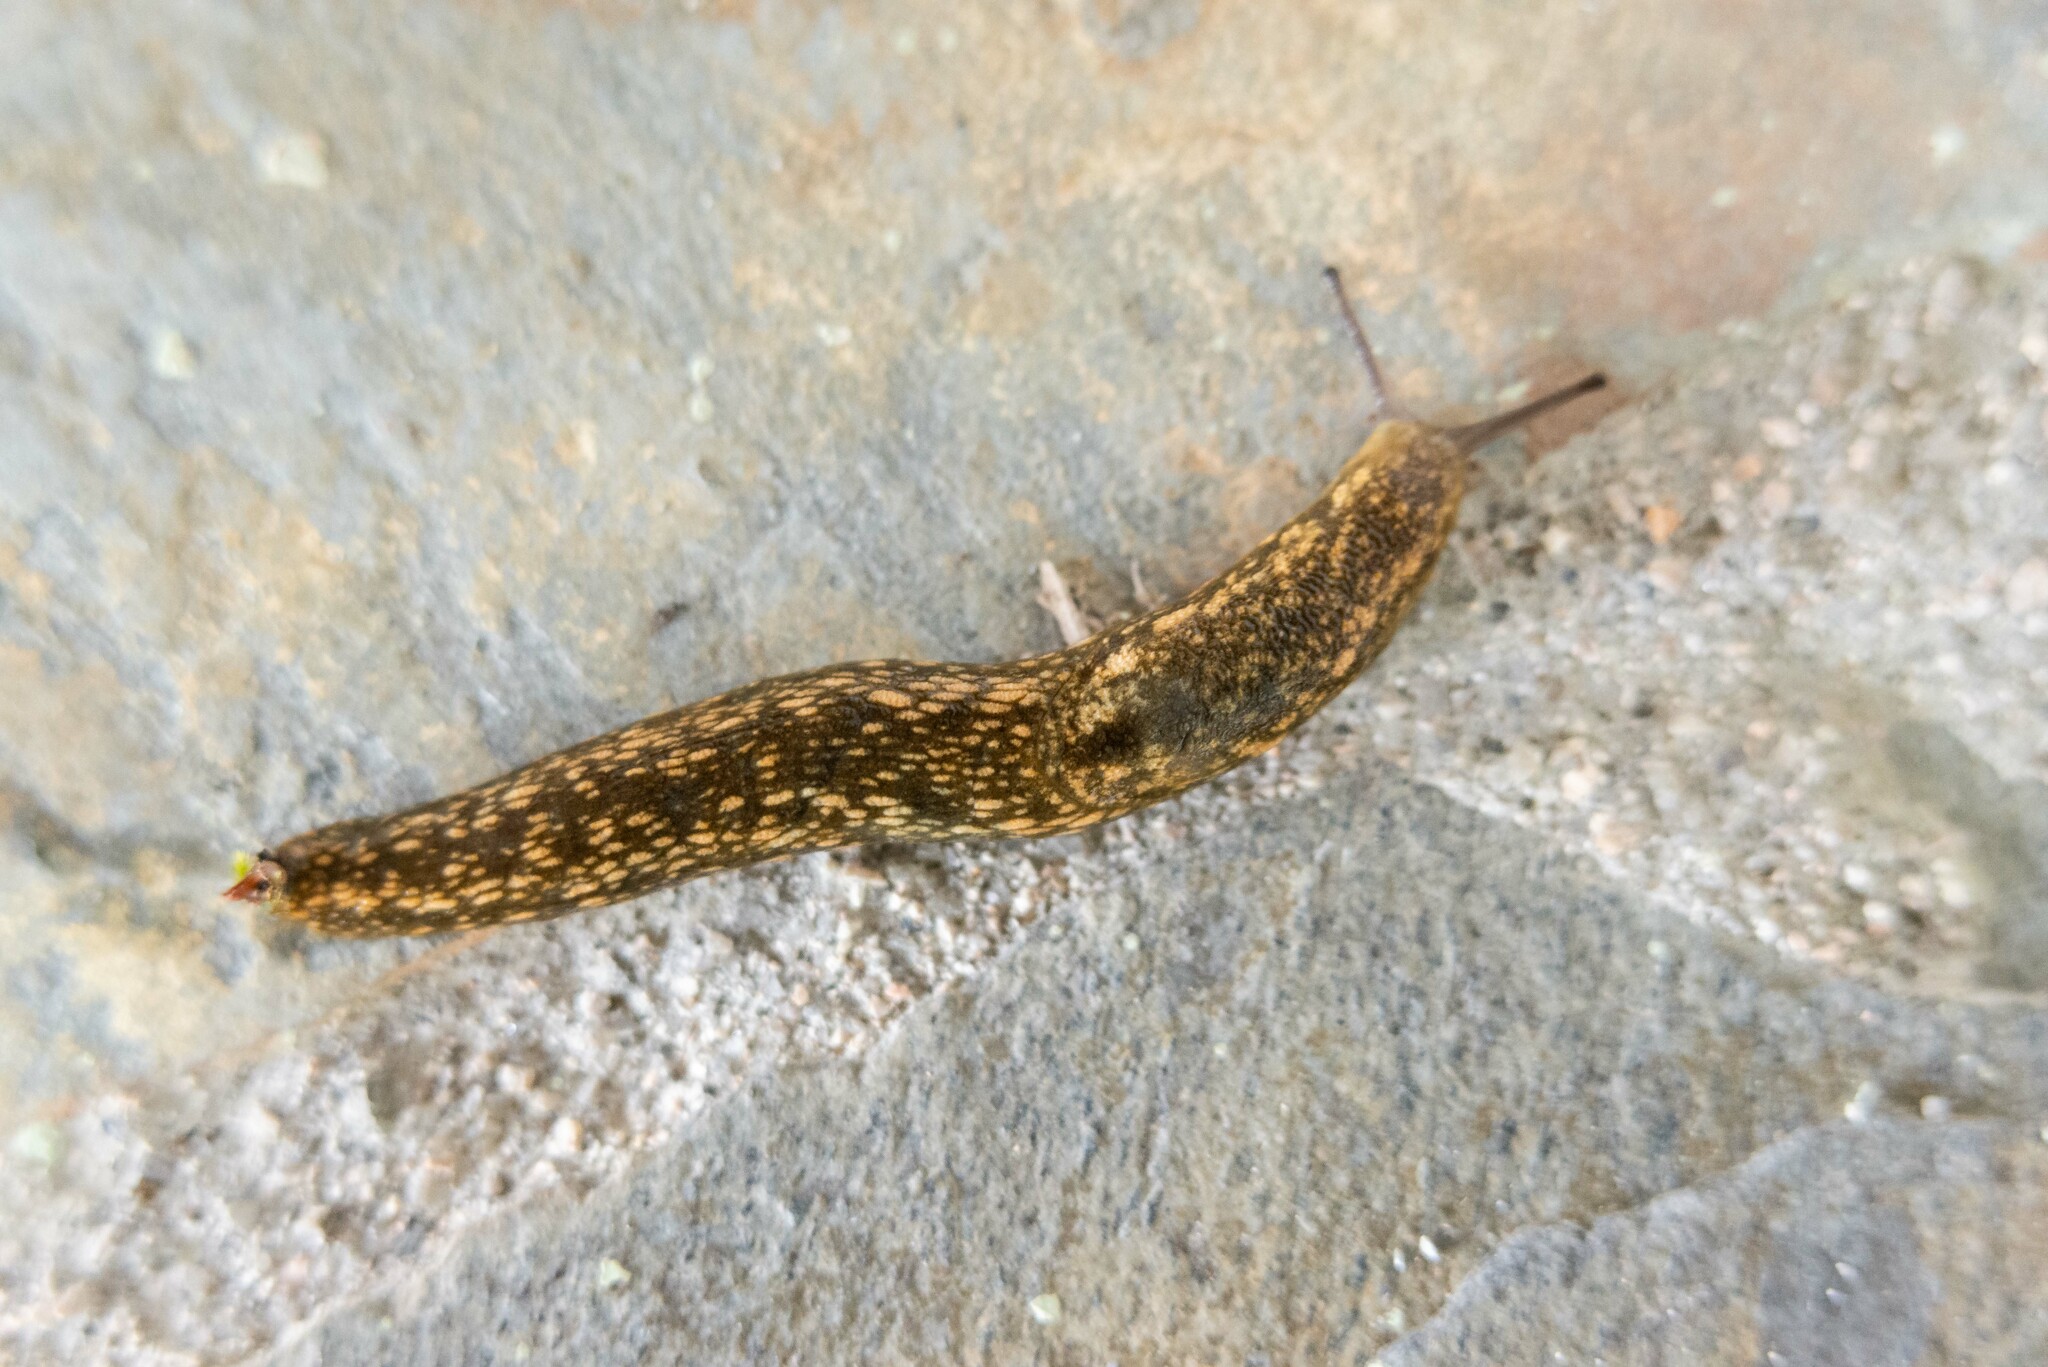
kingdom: Animalia
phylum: Mollusca
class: Gastropoda
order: Stylommatophora
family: Arionidae
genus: Geomalacus
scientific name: Geomalacus maculosus
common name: Kerry slug
